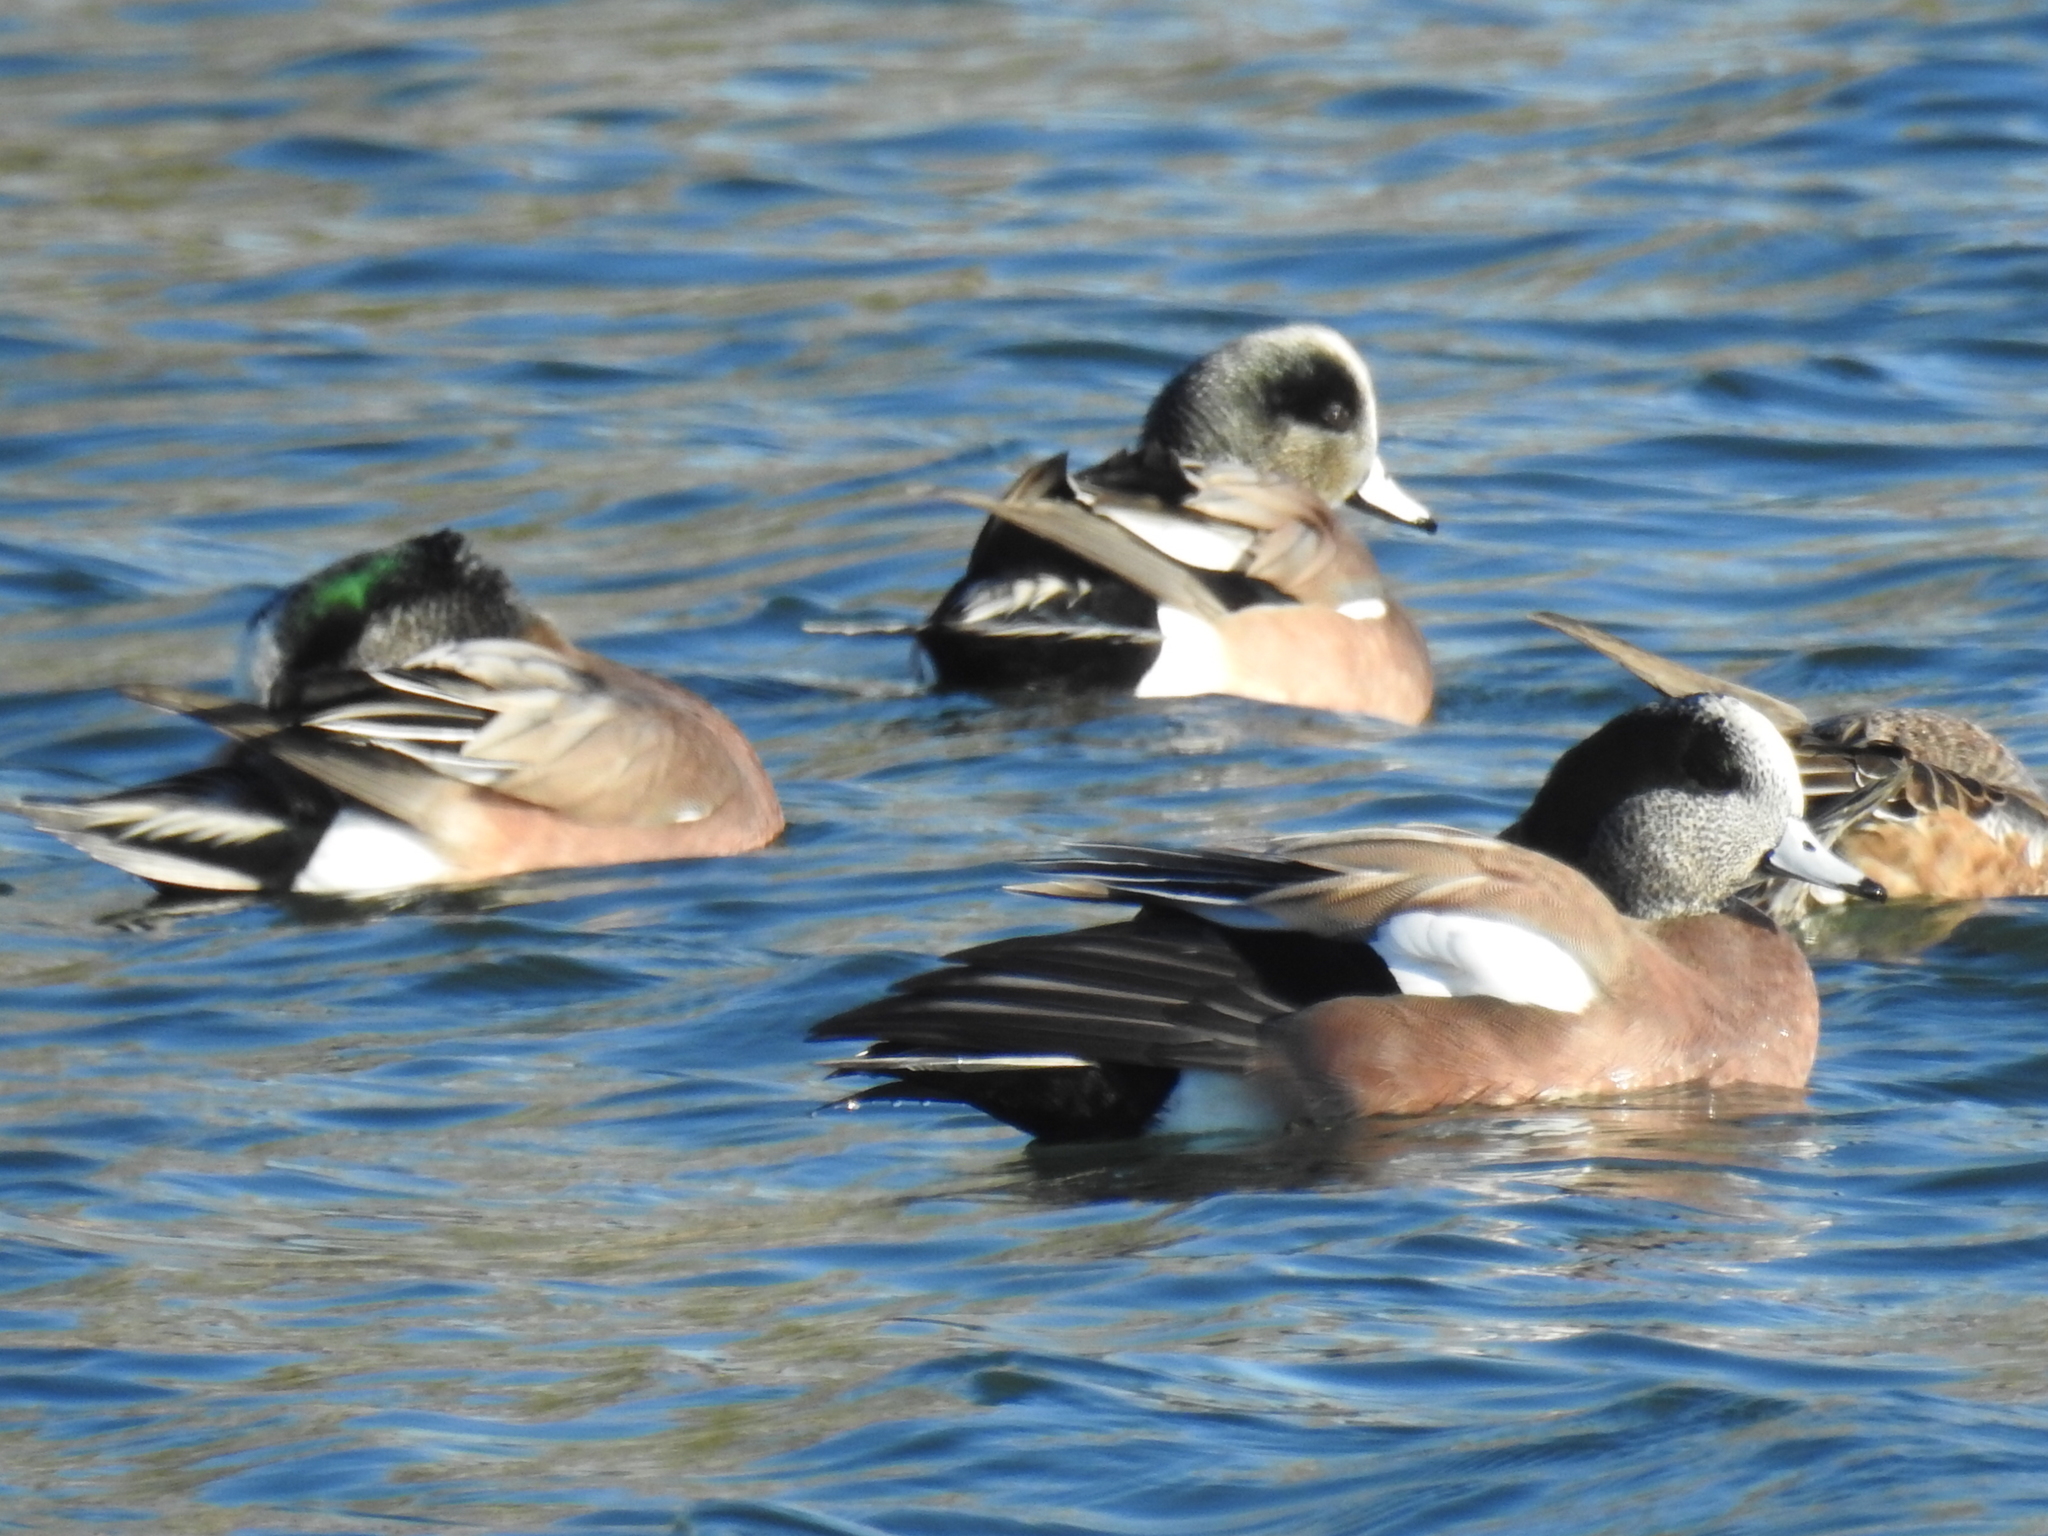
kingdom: Animalia
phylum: Chordata
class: Aves
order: Anseriformes
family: Anatidae
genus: Mareca
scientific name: Mareca americana
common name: American wigeon
